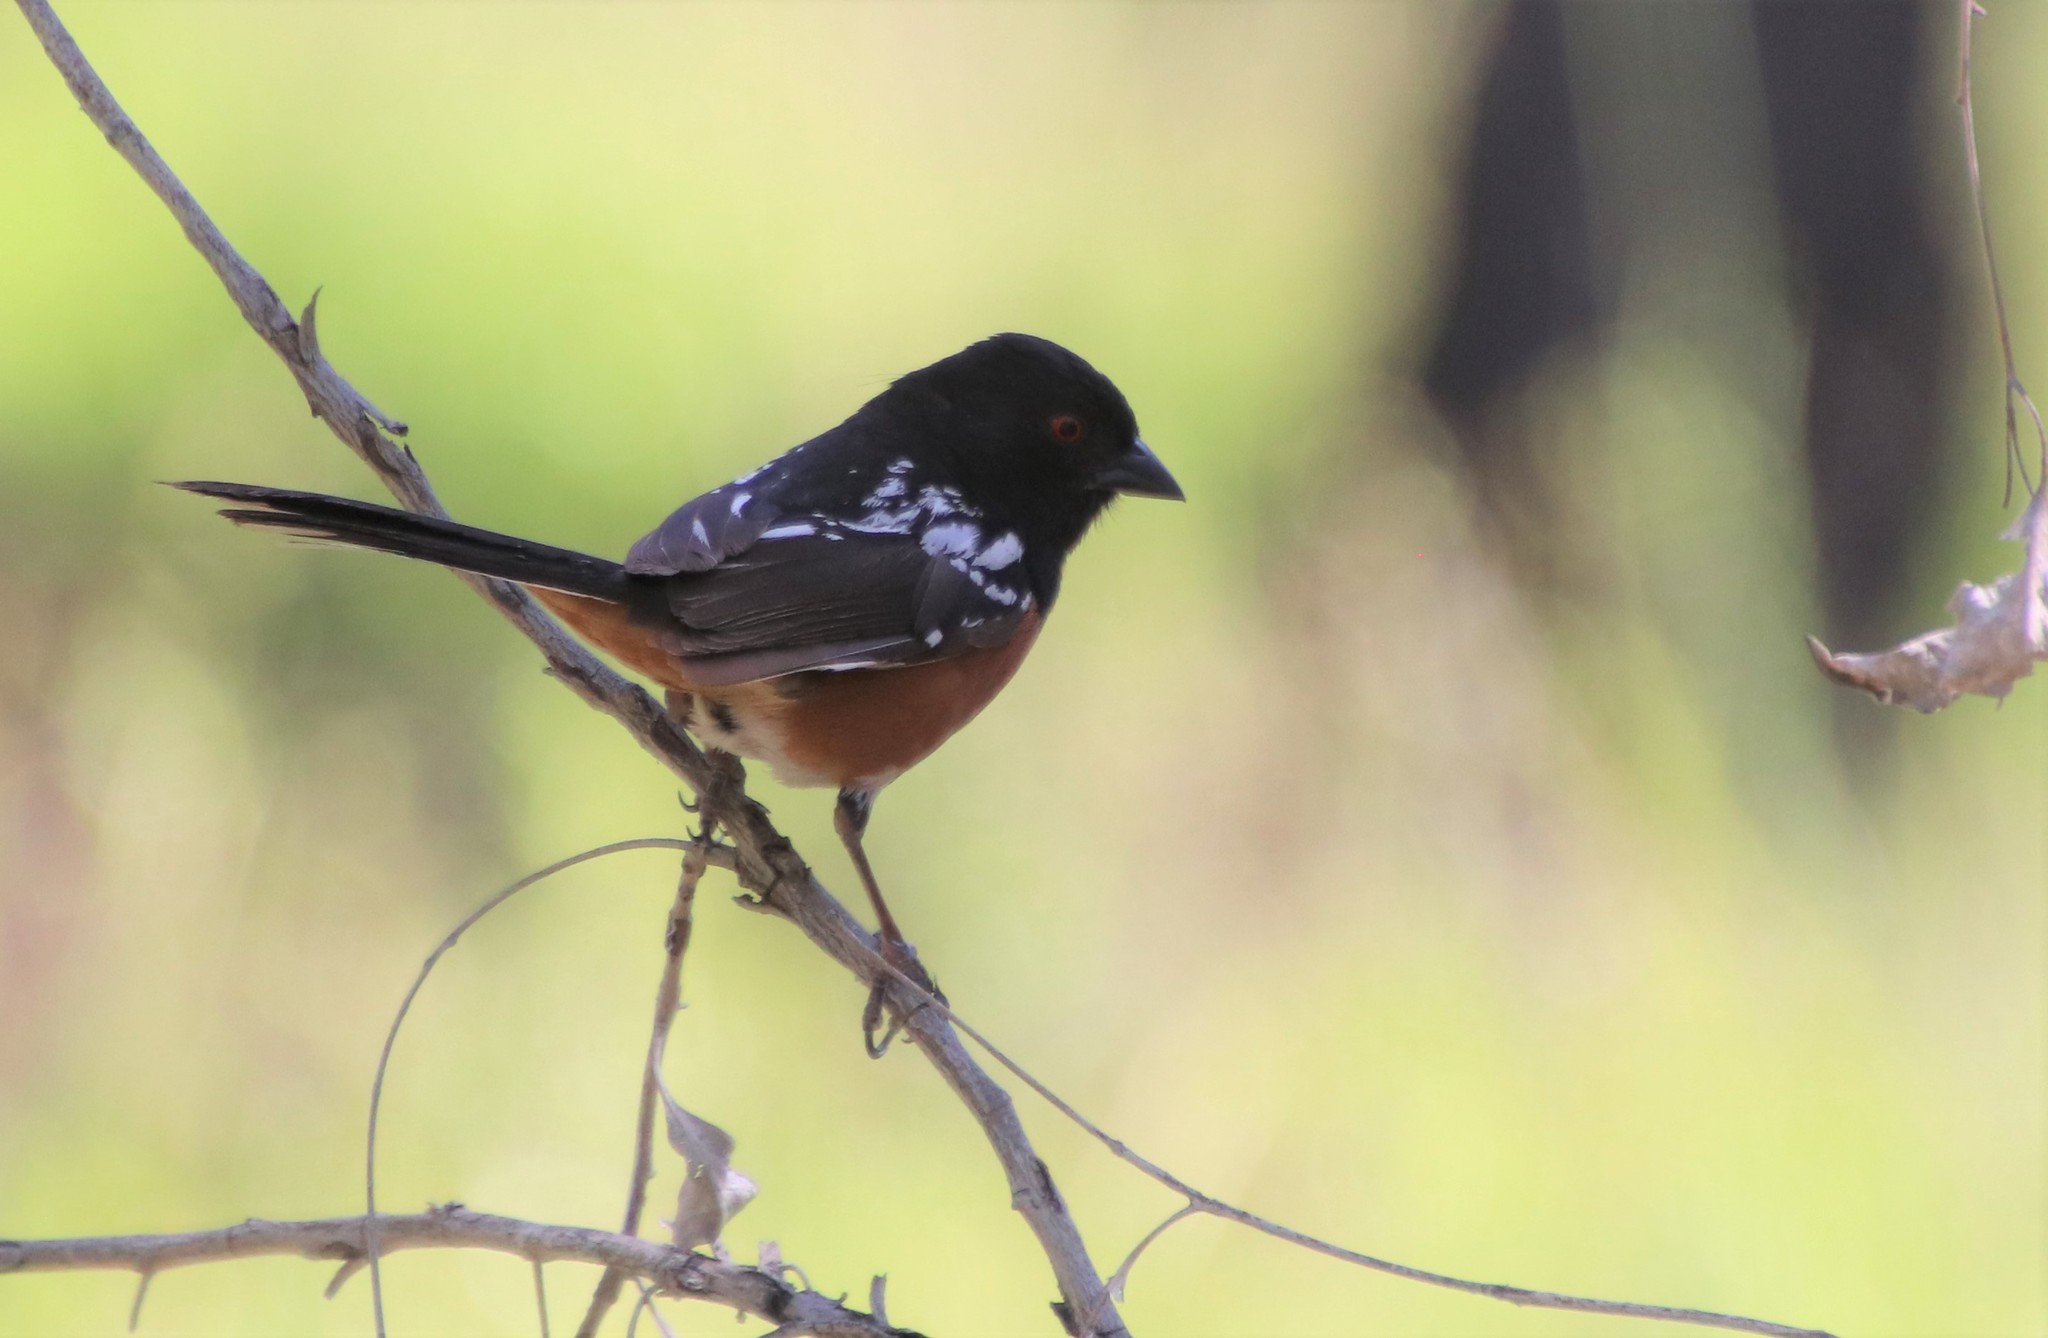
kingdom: Animalia
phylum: Chordata
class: Aves
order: Passeriformes
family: Passerellidae
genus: Pipilo
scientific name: Pipilo maculatus
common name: Spotted towhee
